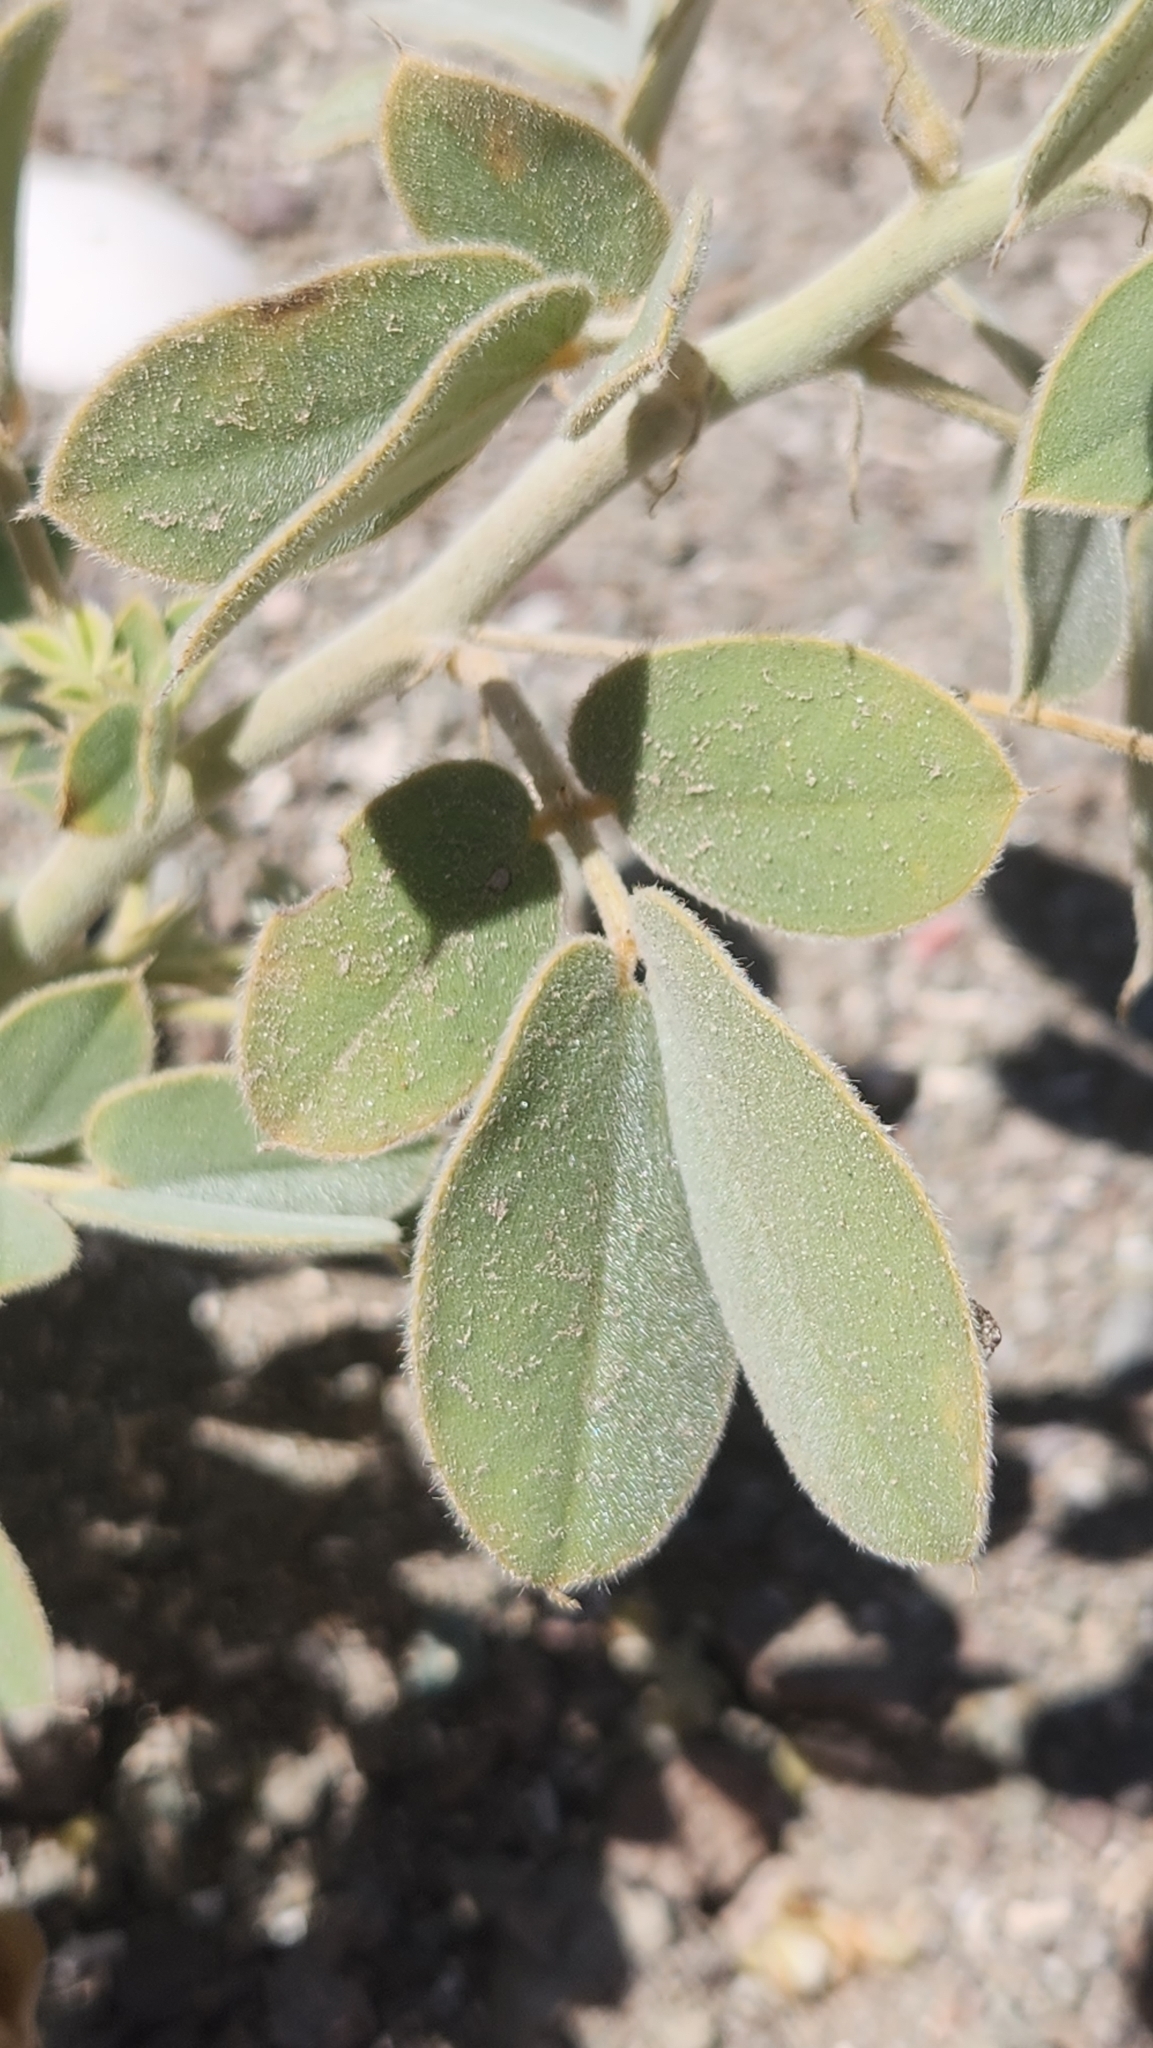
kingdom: Plantae
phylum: Tracheophyta
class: Magnoliopsida
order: Fabales
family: Fabaceae
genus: Senna
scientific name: Senna confinis
